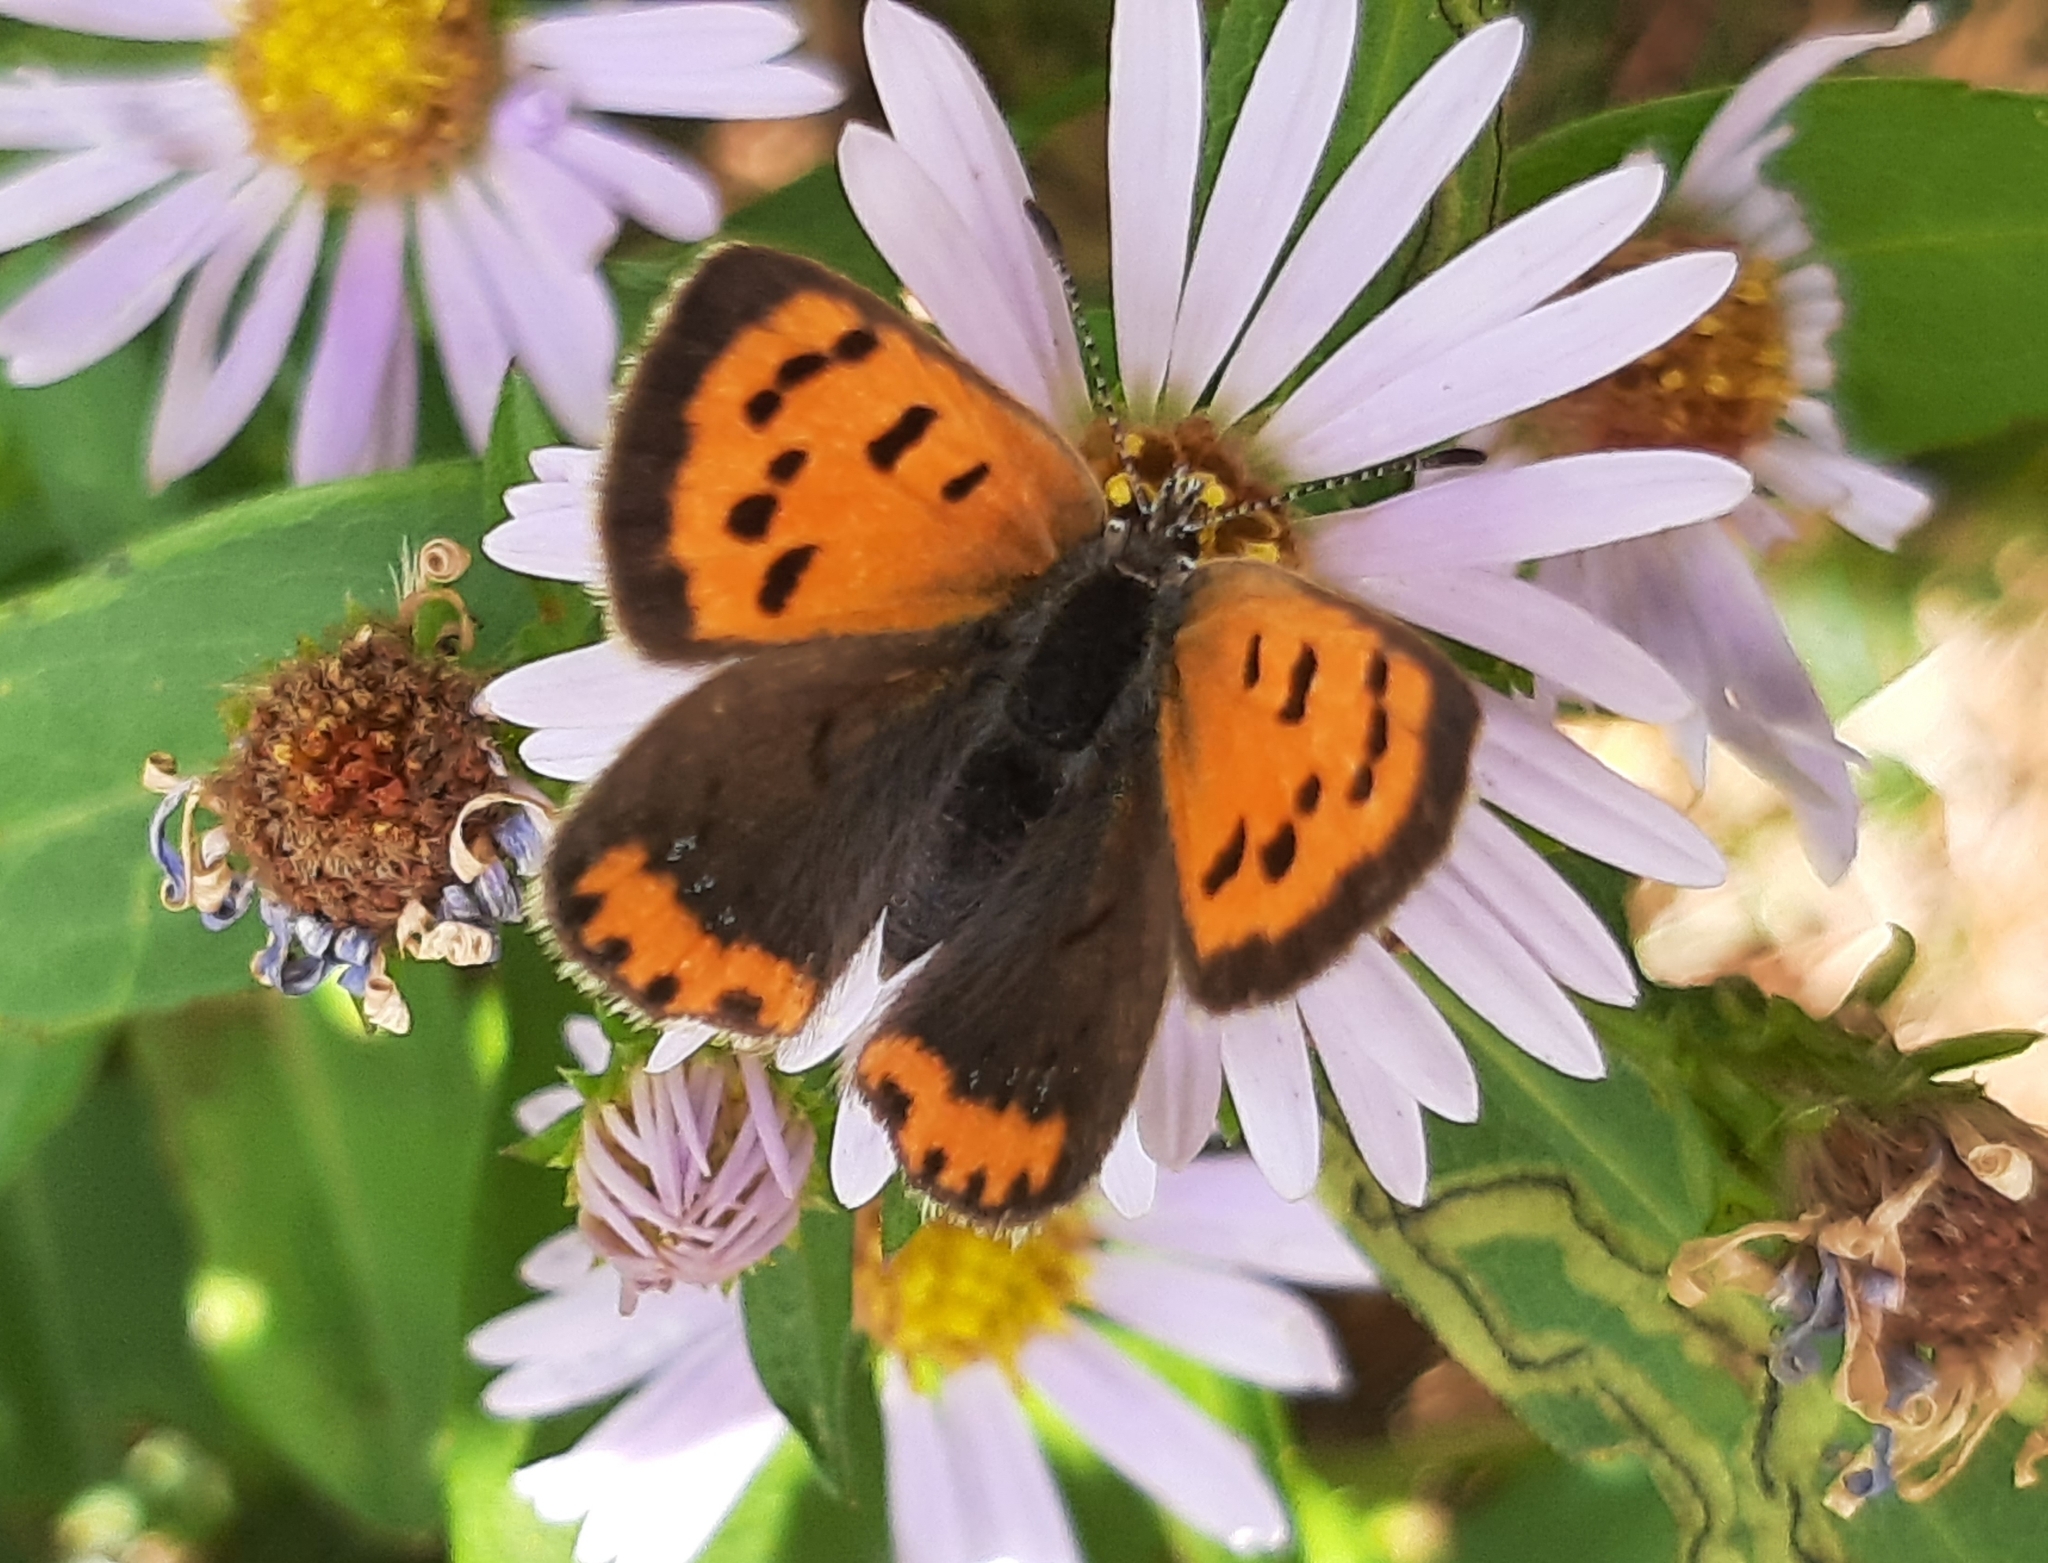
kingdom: Animalia
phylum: Arthropoda
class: Insecta
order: Lepidoptera
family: Lycaenidae
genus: Lycaena
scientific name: Lycaena hypophlaeas
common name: American copper
